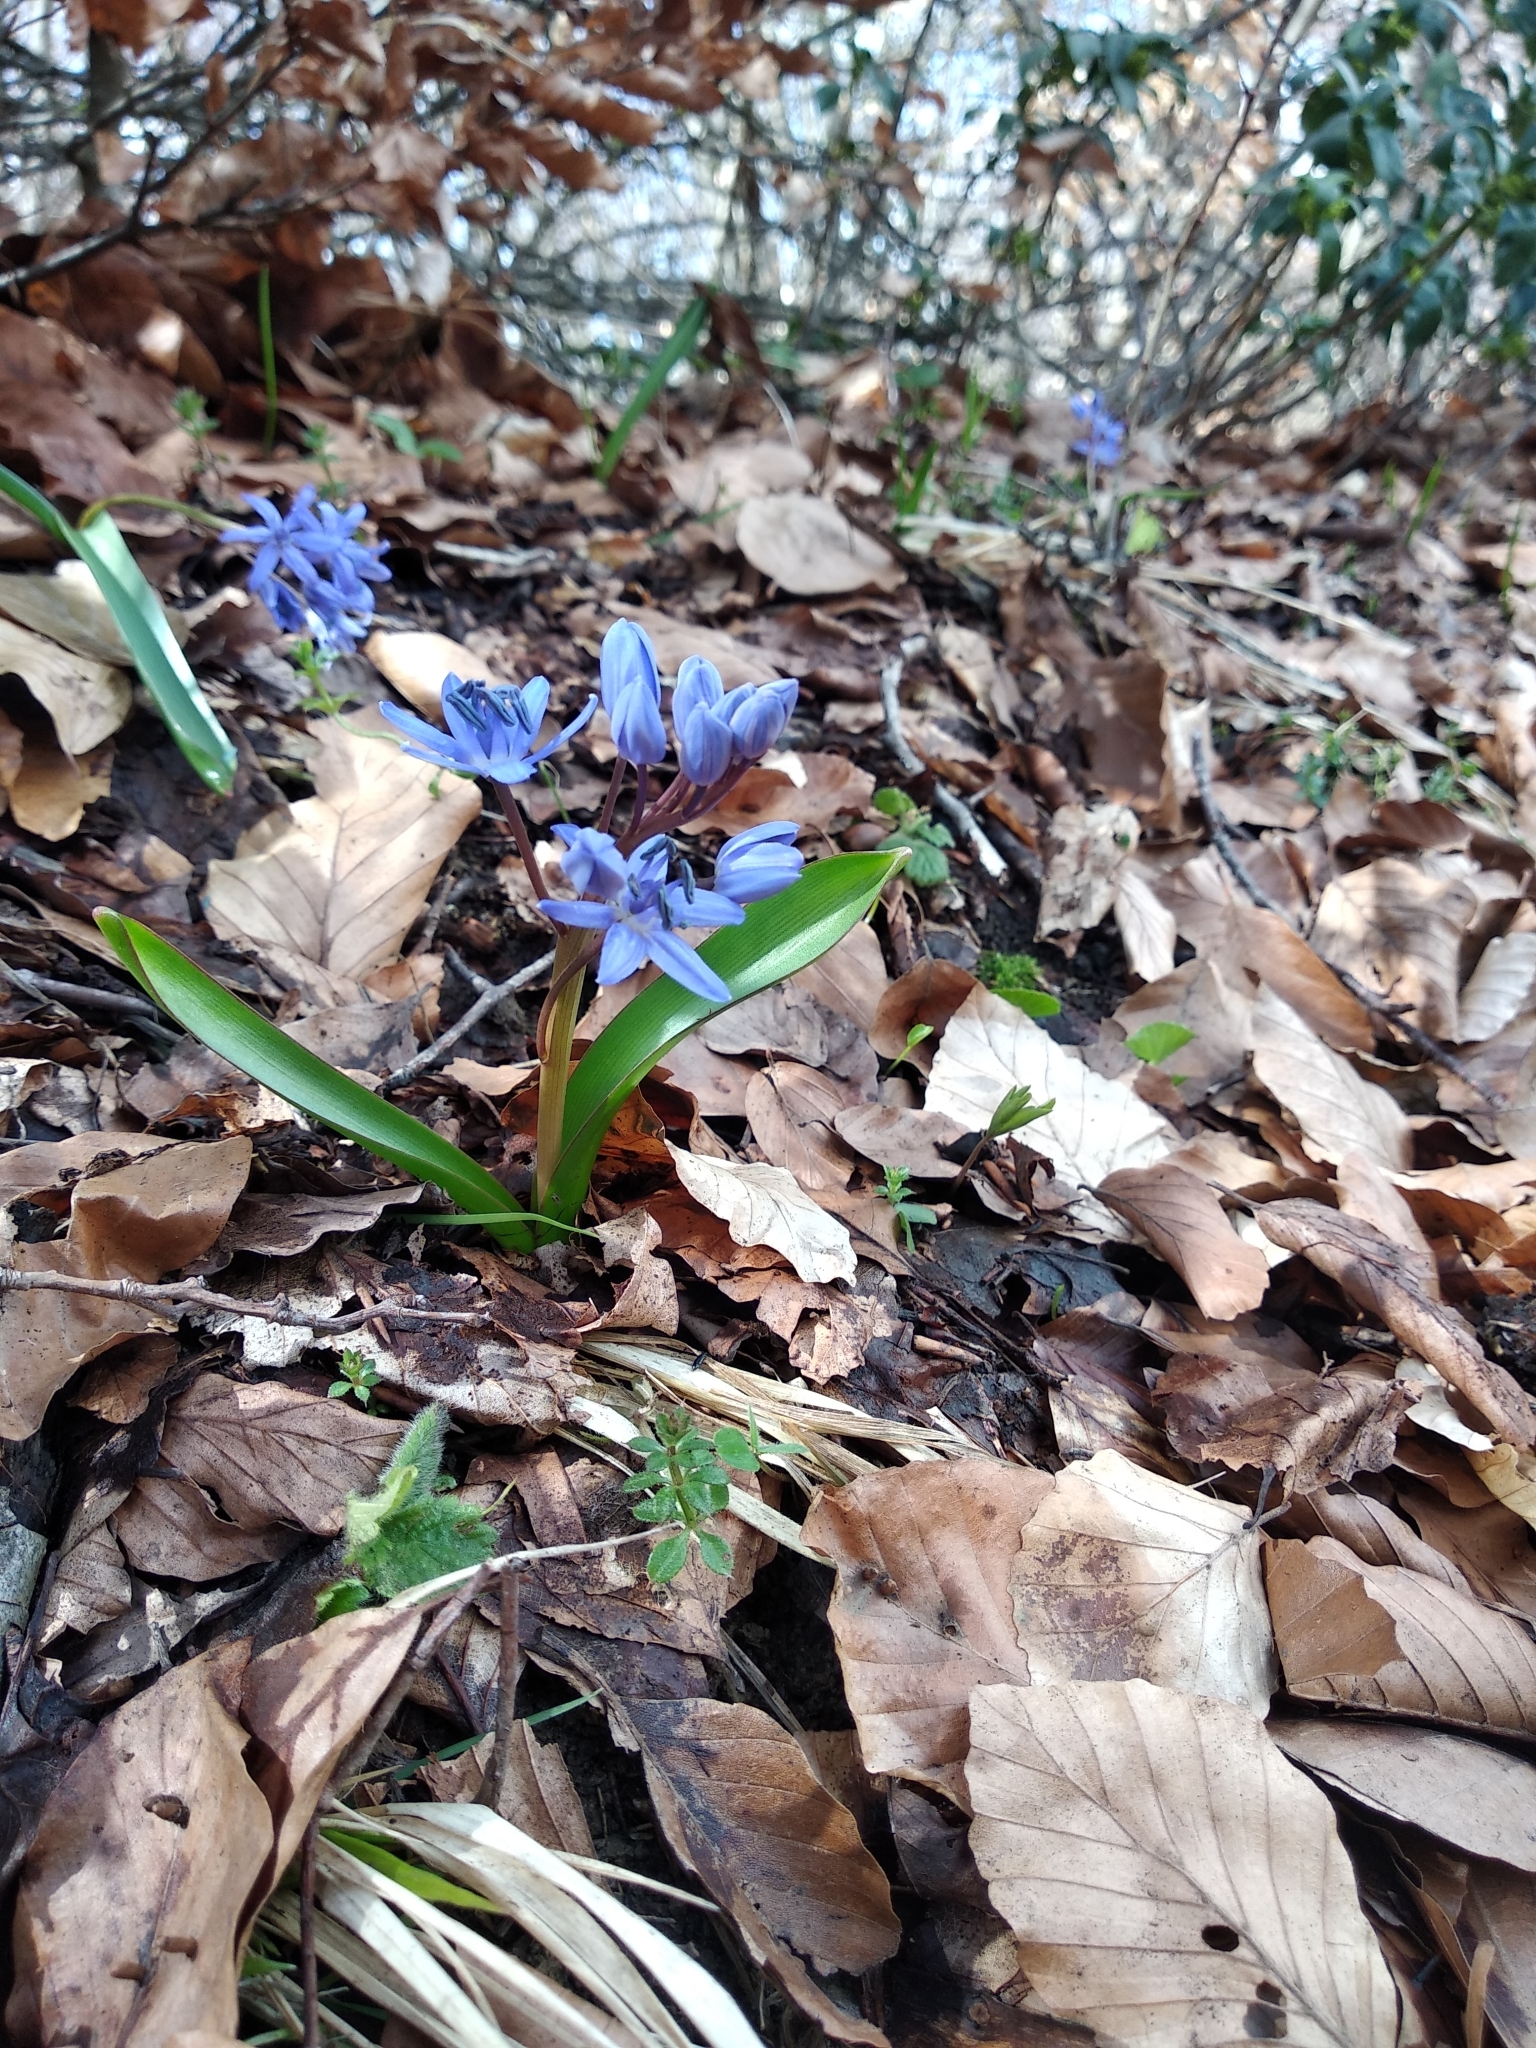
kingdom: Plantae
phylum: Tracheophyta
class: Liliopsida
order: Asparagales
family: Asparagaceae
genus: Scilla
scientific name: Scilla bifolia
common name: Alpine squill
